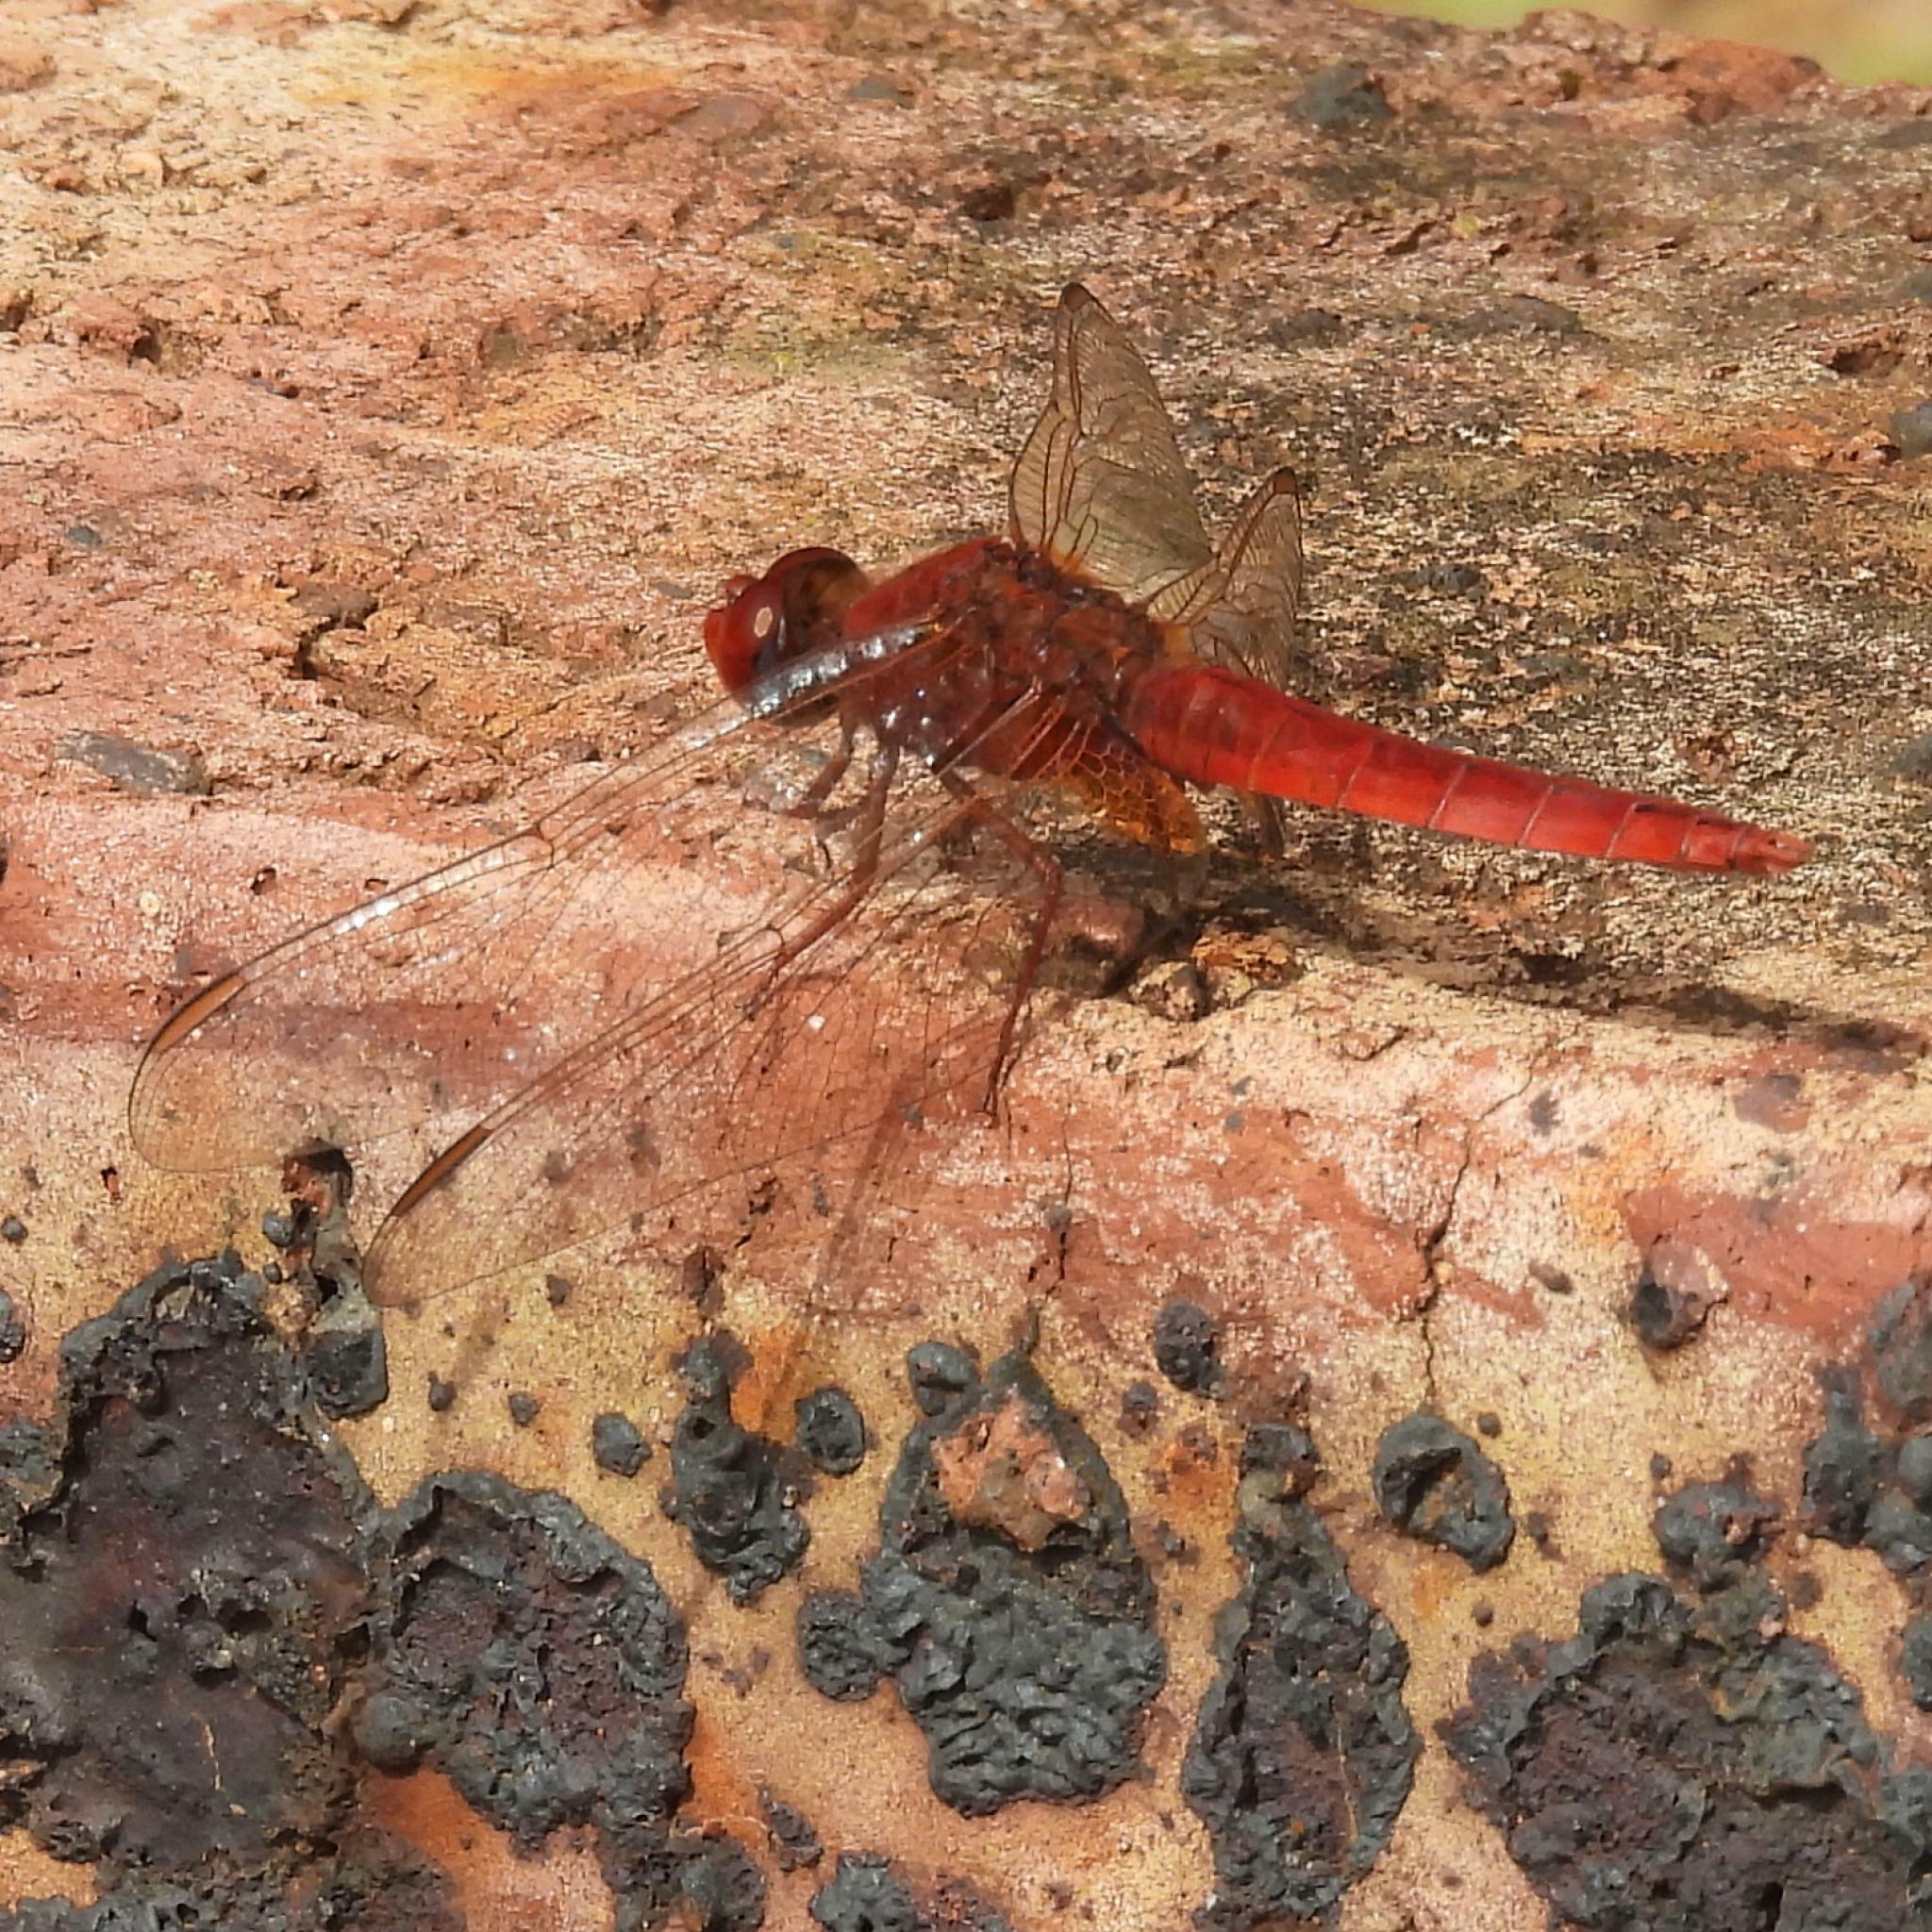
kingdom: Animalia
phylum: Arthropoda
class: Insecta
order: Odonata
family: Libellulidae
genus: Crocothemis
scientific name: Crocothemis erythraea
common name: Scarlet dragonfly
